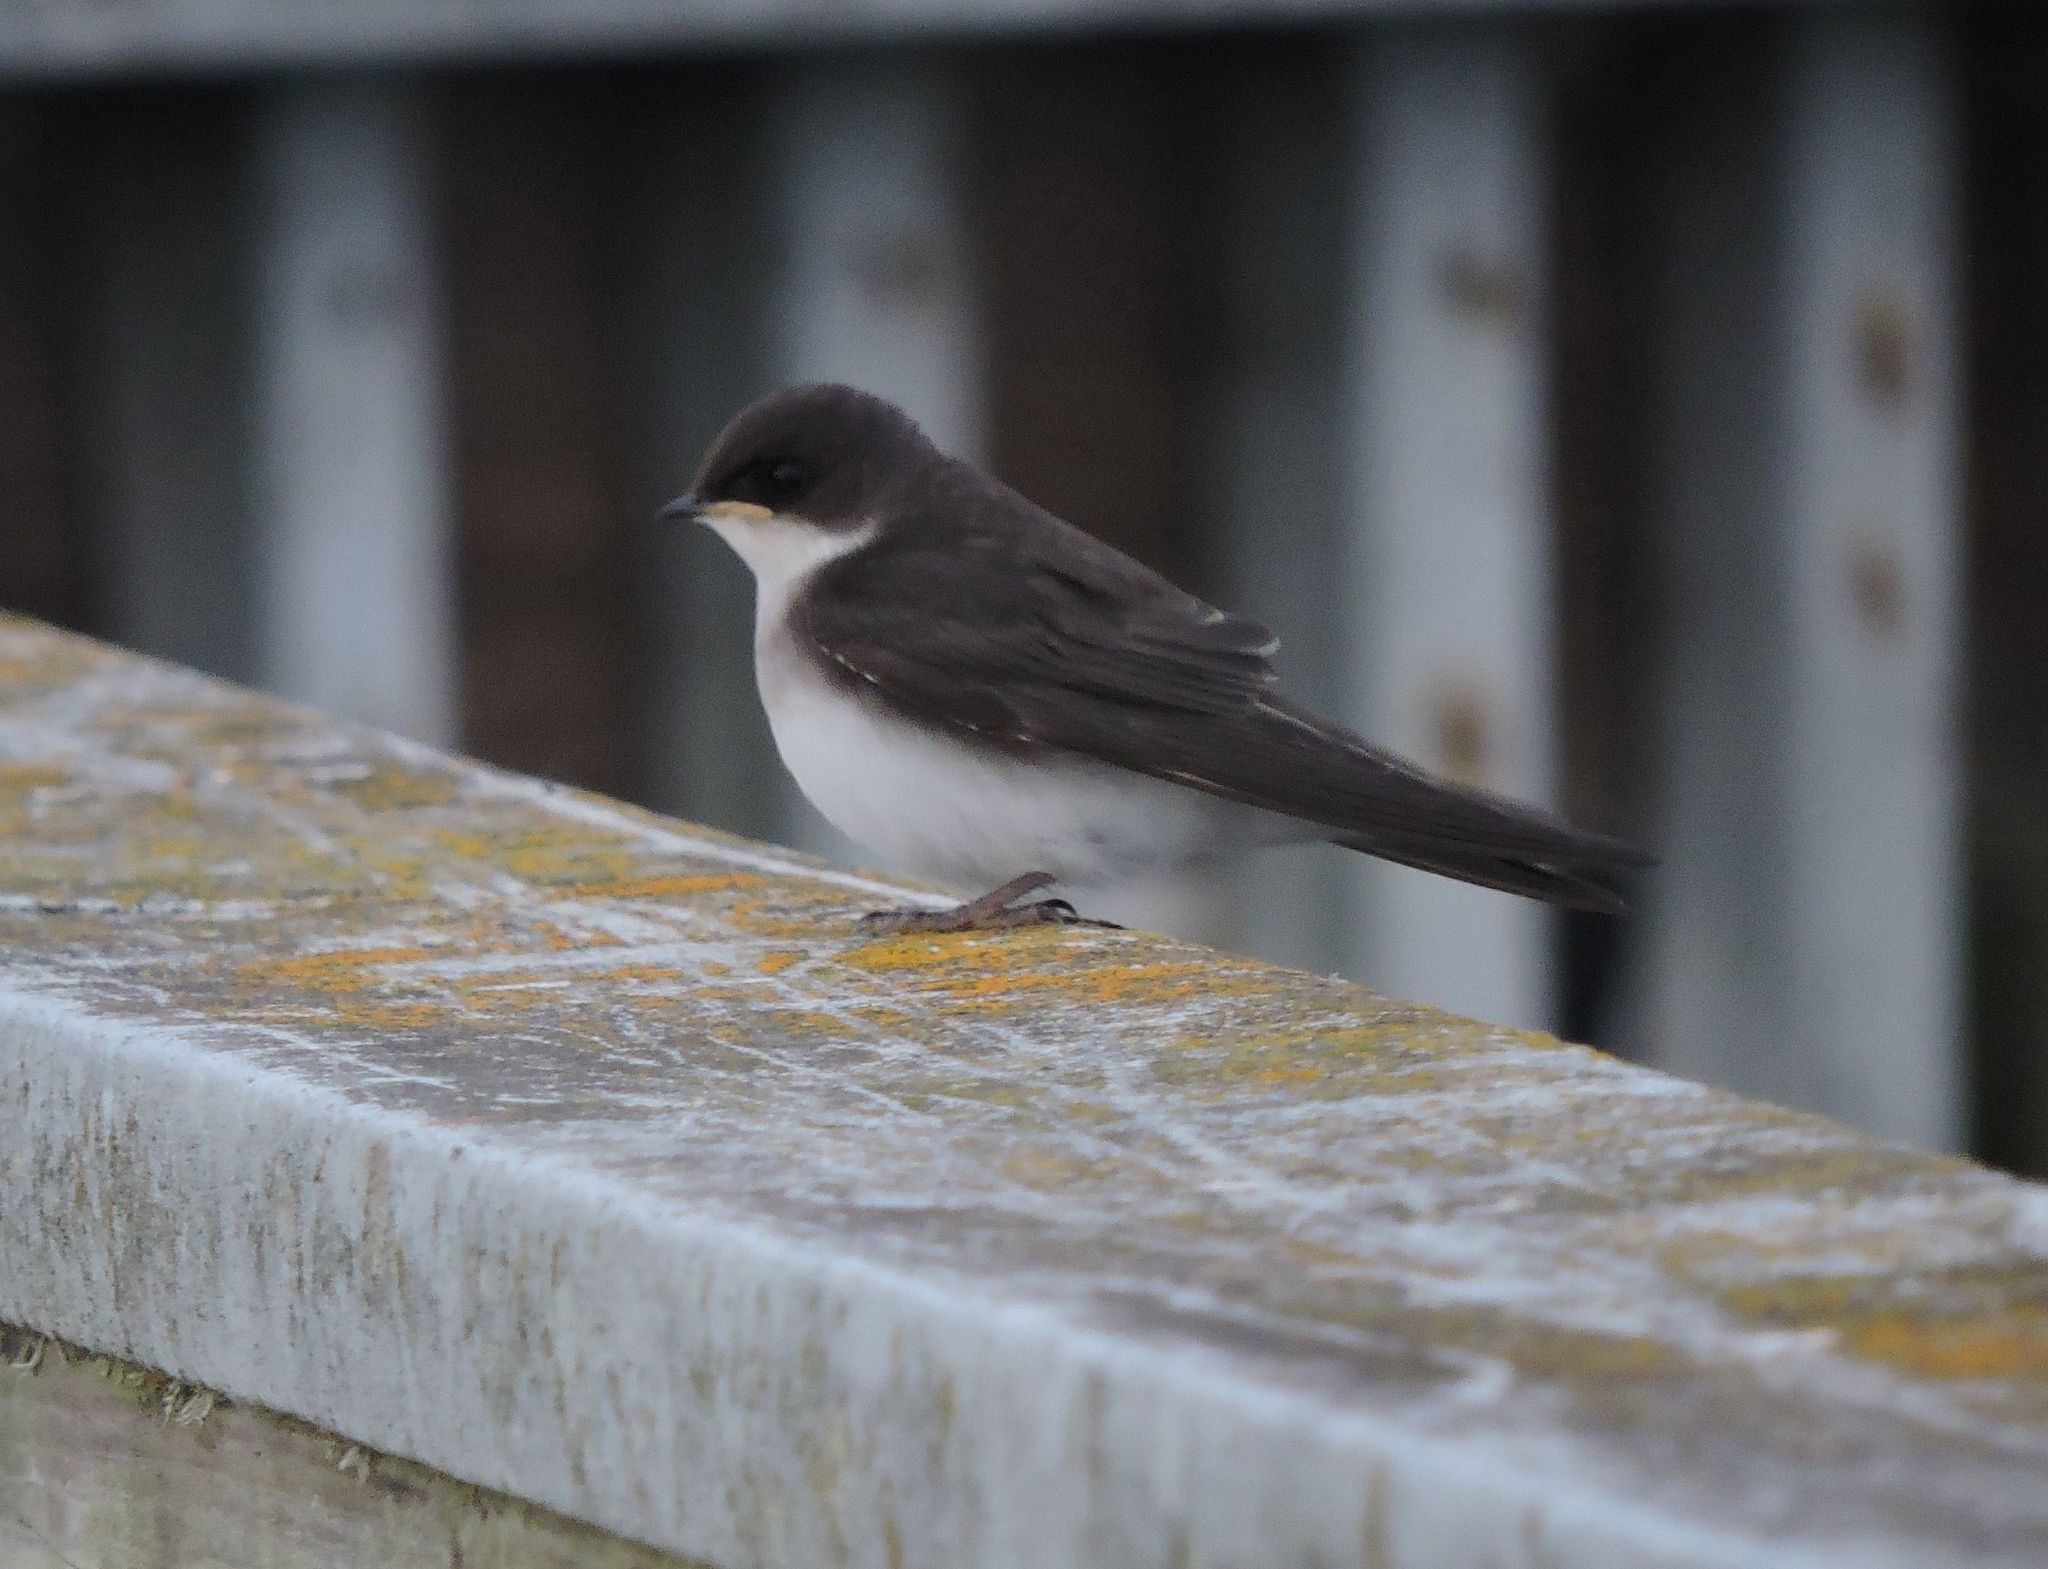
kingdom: Animalia
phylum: Chordata
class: Aves
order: Passeriformes
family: Hirundinidae
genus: Tachycineta
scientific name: Tachycineta bicolor
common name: Tree swallow
